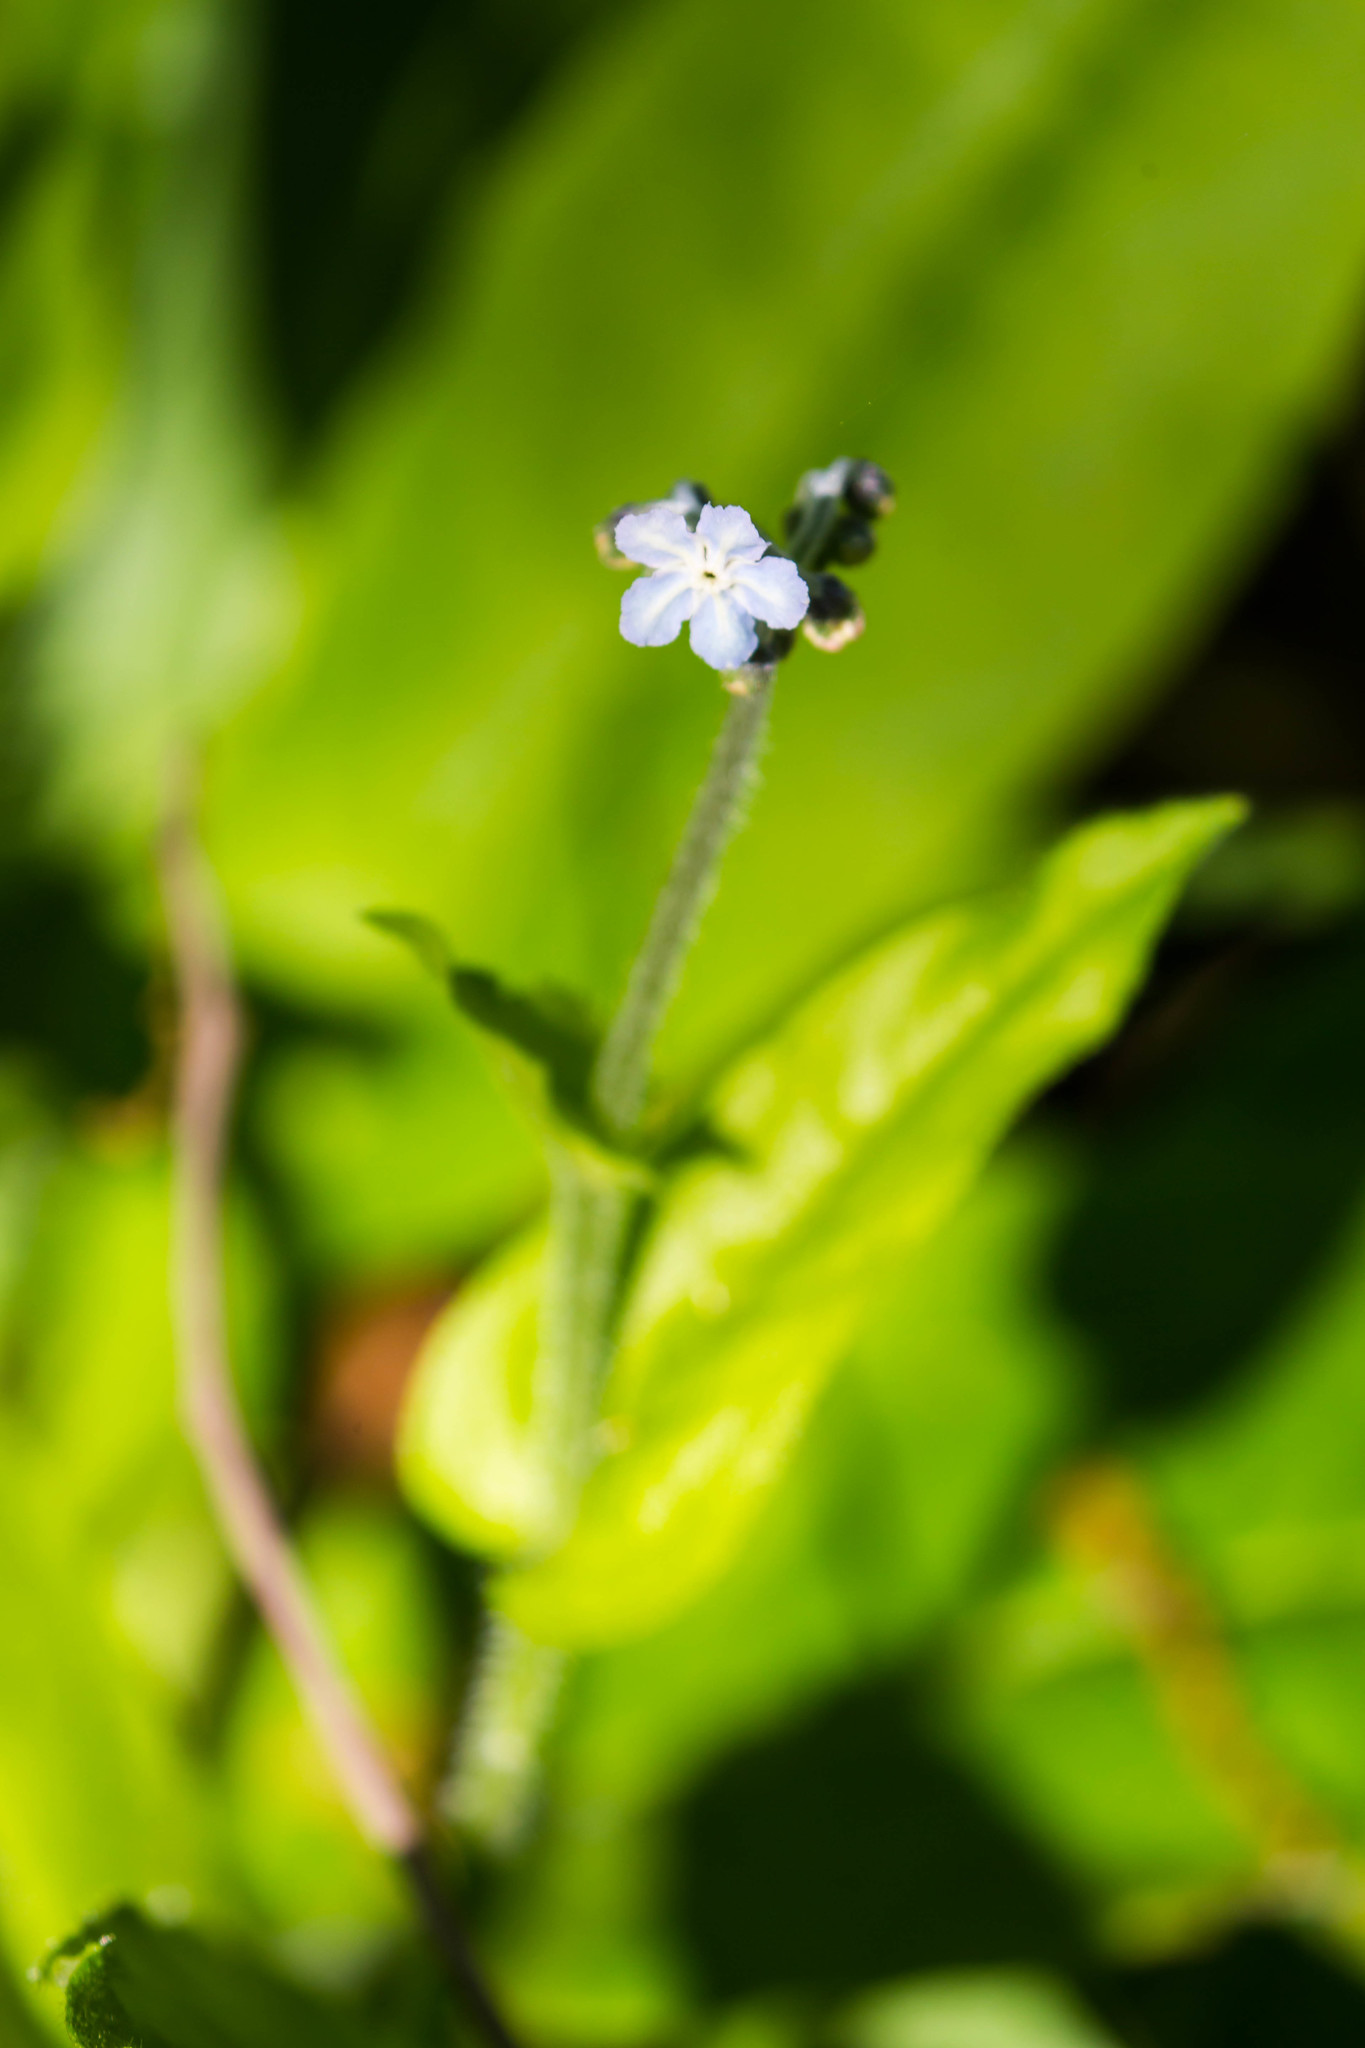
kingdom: Plantae
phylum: Tracheophyta
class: Magnoliopsida
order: Boraginales
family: Boraginaceae
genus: Andersonglossum
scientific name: Andersonglossum virginianum
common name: Wild comfrey
